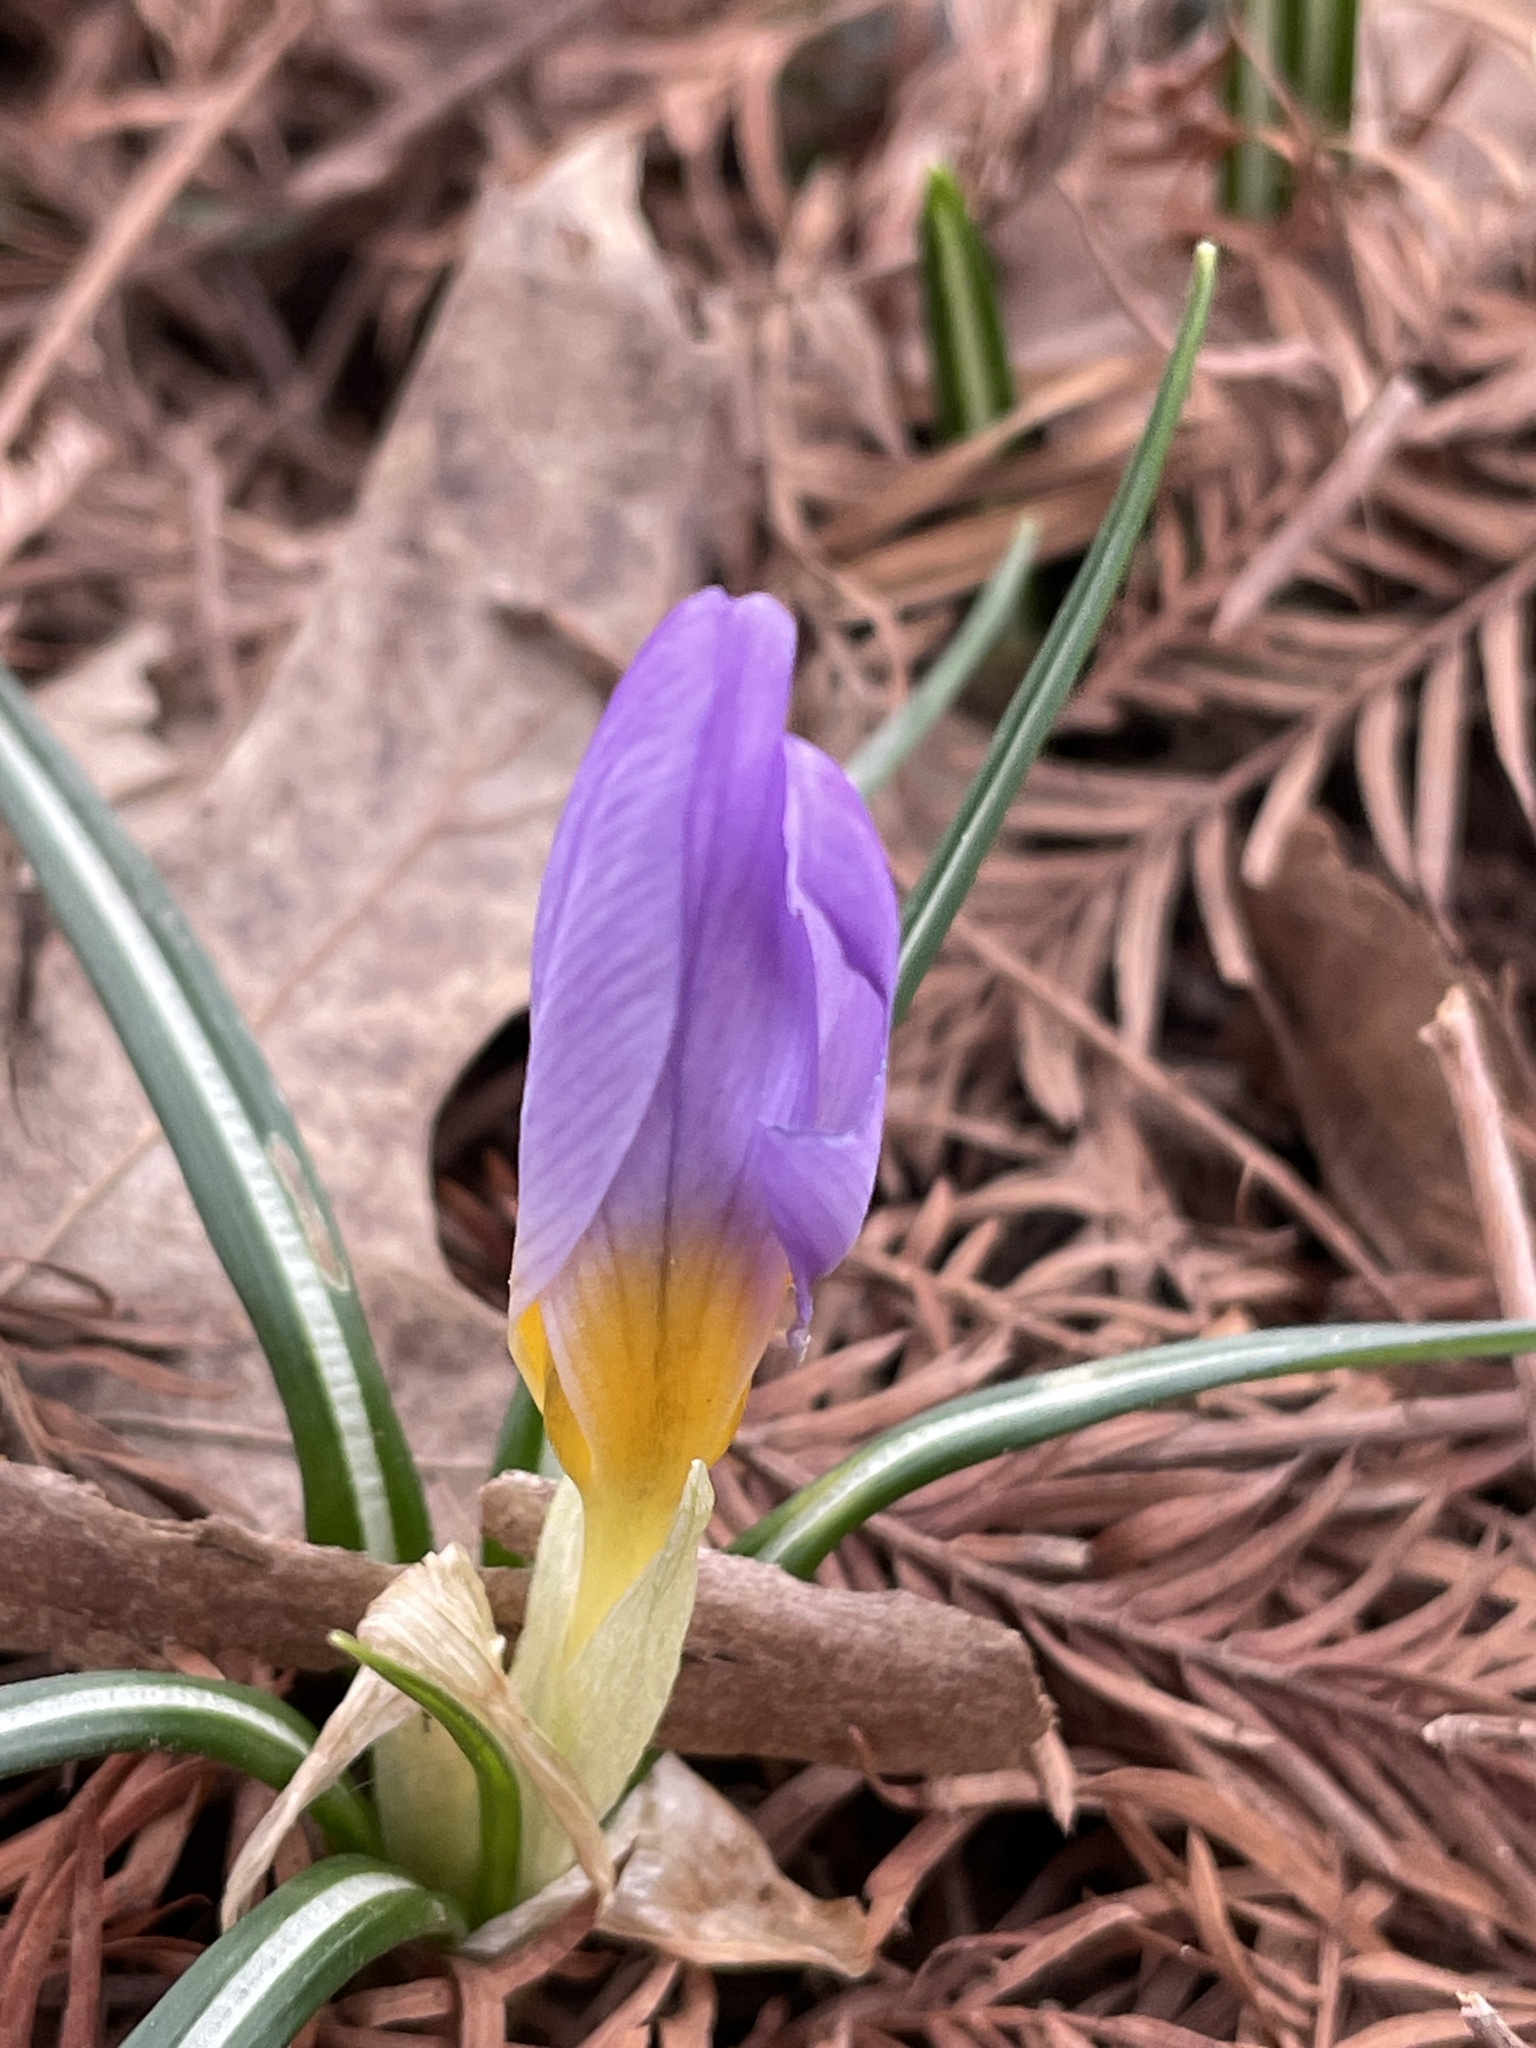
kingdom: Plantae
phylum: Tracheophyta
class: Liliopsida
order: Asparagales
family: Iridaceae
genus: Crocus
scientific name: Crocus tommasinianus
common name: Early crocus
